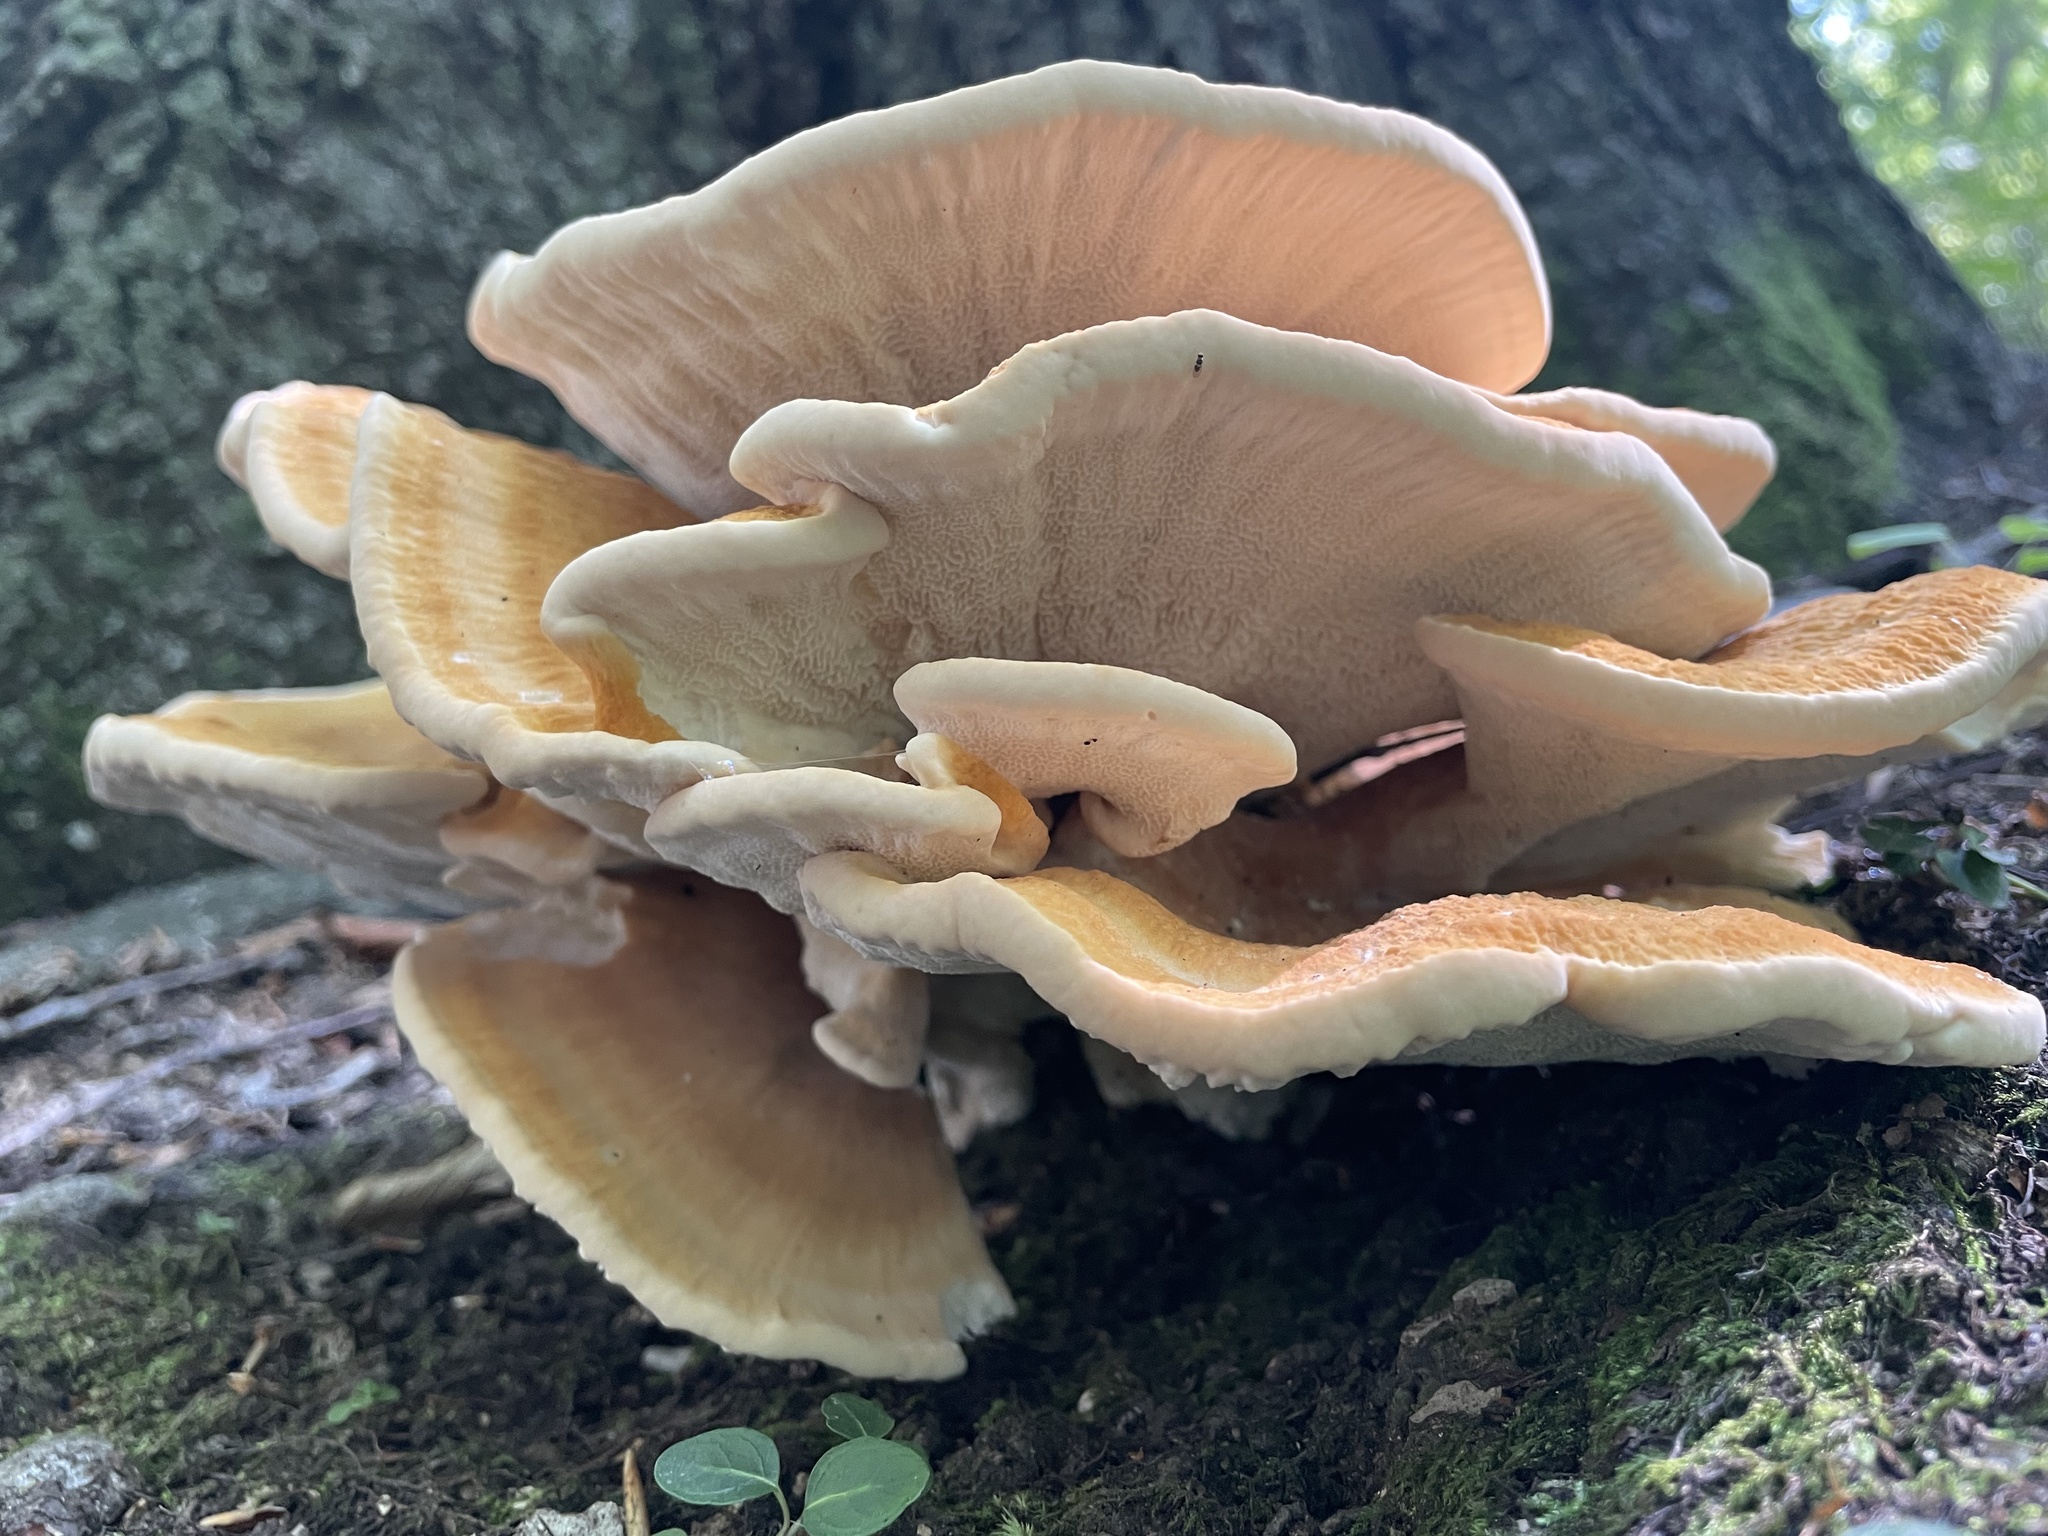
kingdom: Fungi
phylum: Basidiomycota
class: Agaricomycetes
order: Russulales
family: Bondarzewiaceae
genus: Bondarzewia
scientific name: Bondarzewia berkeleyi
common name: Berkeley's polypore
